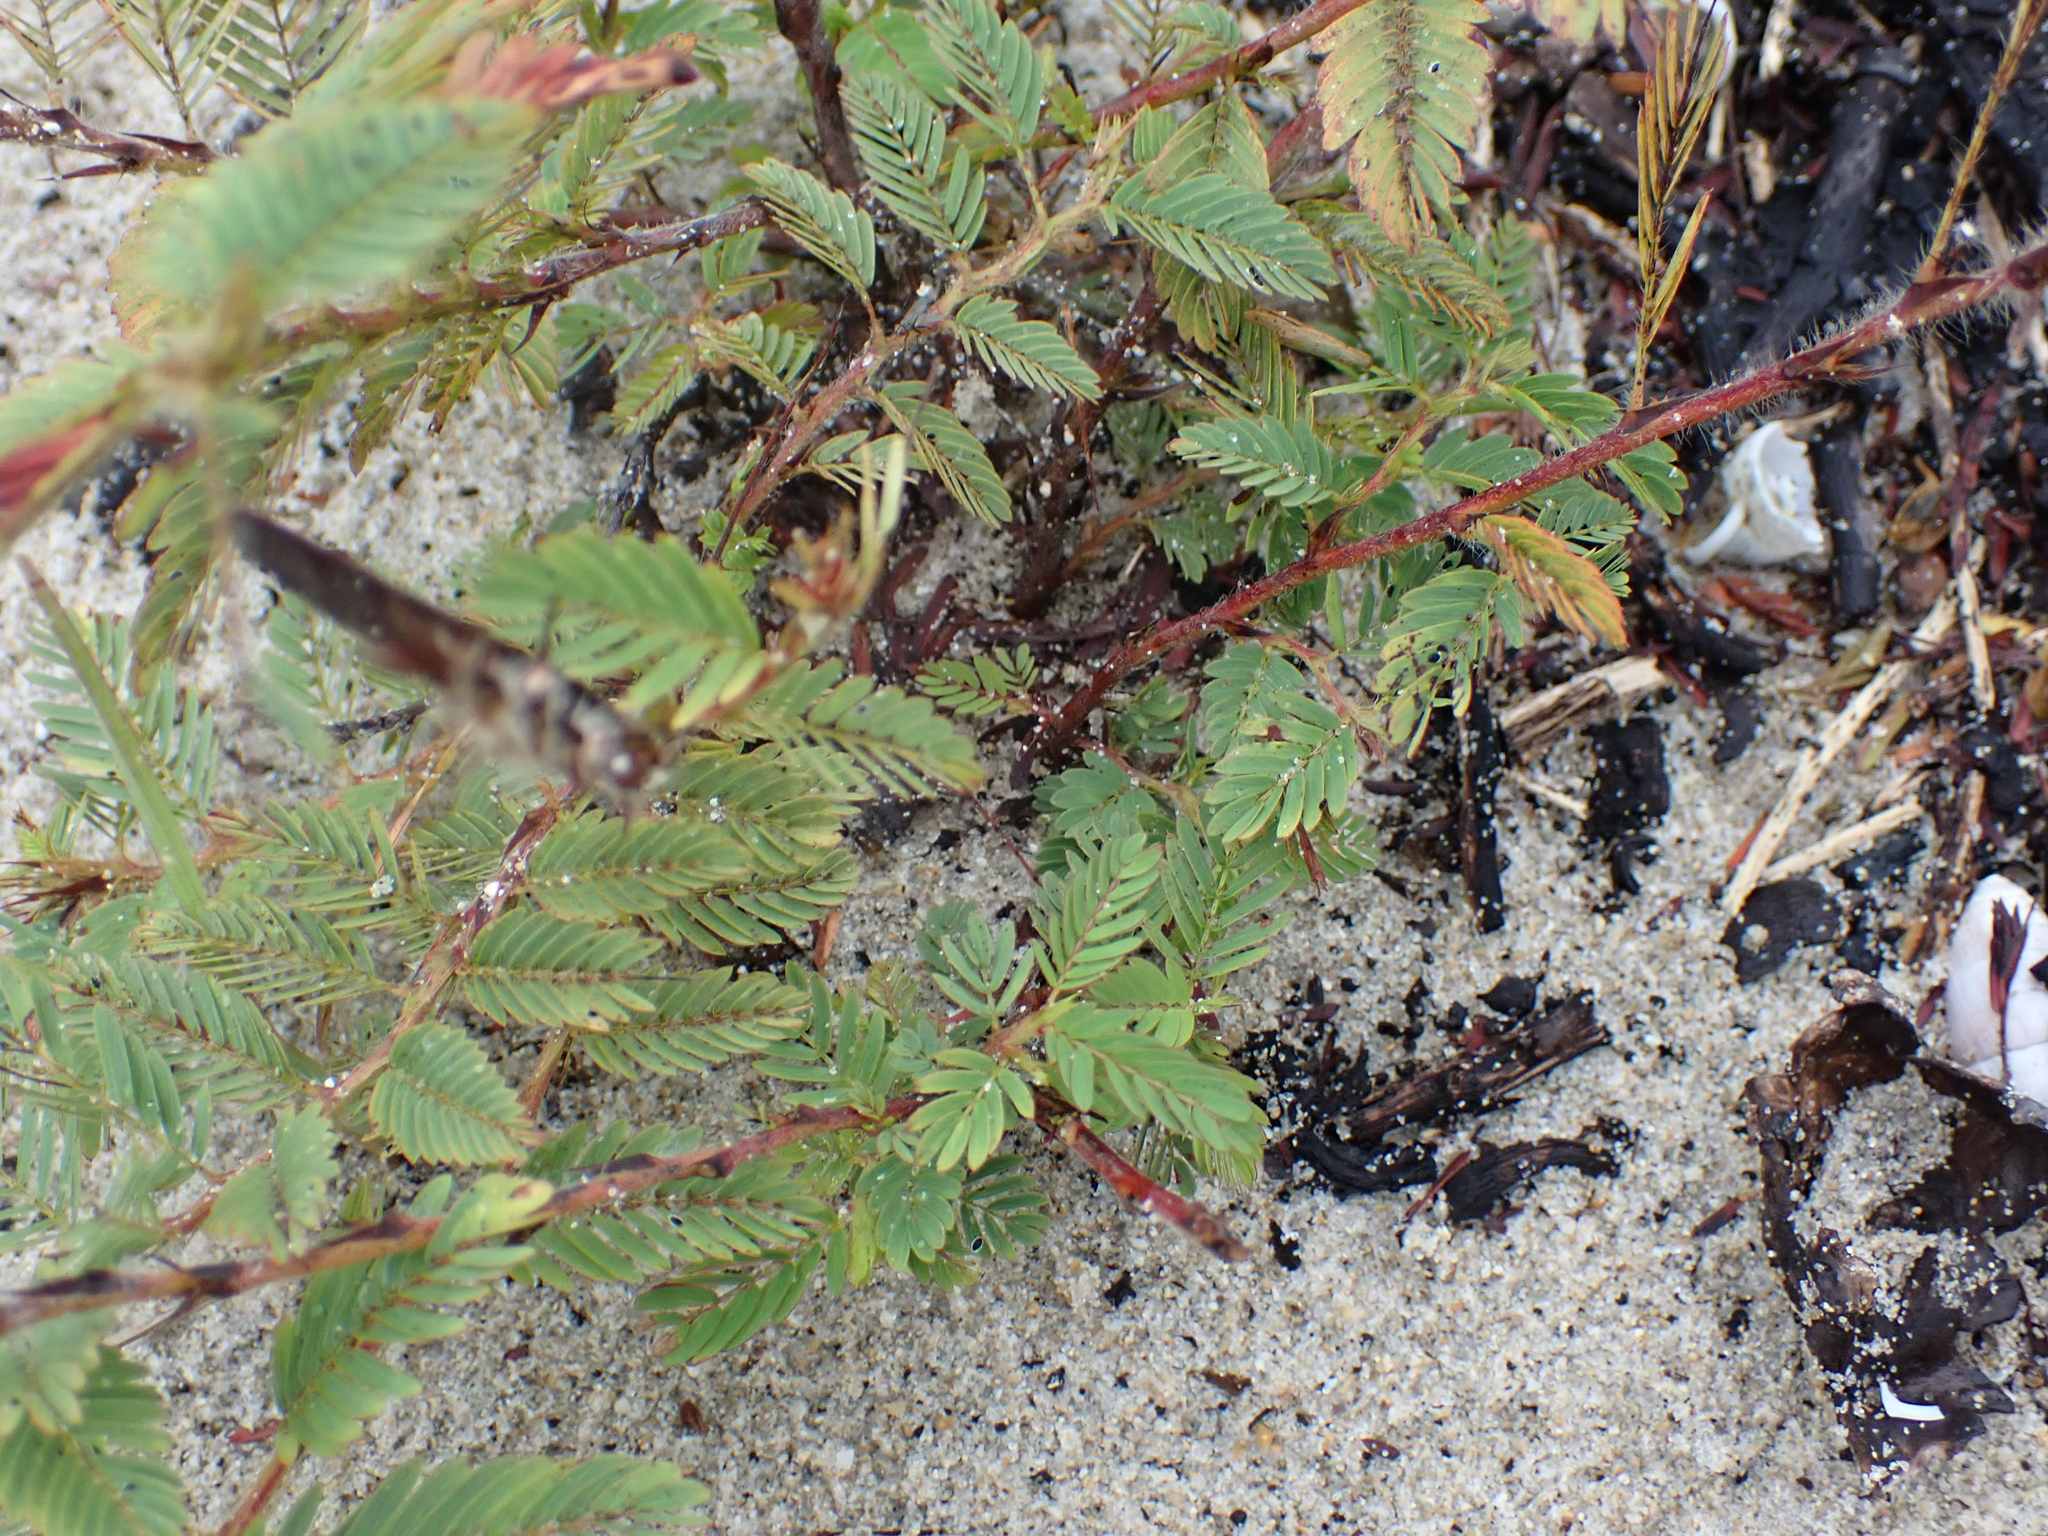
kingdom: Plantae
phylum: Tracheophyta
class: Magnoliopsida
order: Fabales
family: Fabaceae
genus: Chamaecrista
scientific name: Chamaecrista nictitans
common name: Sensitive cassia
